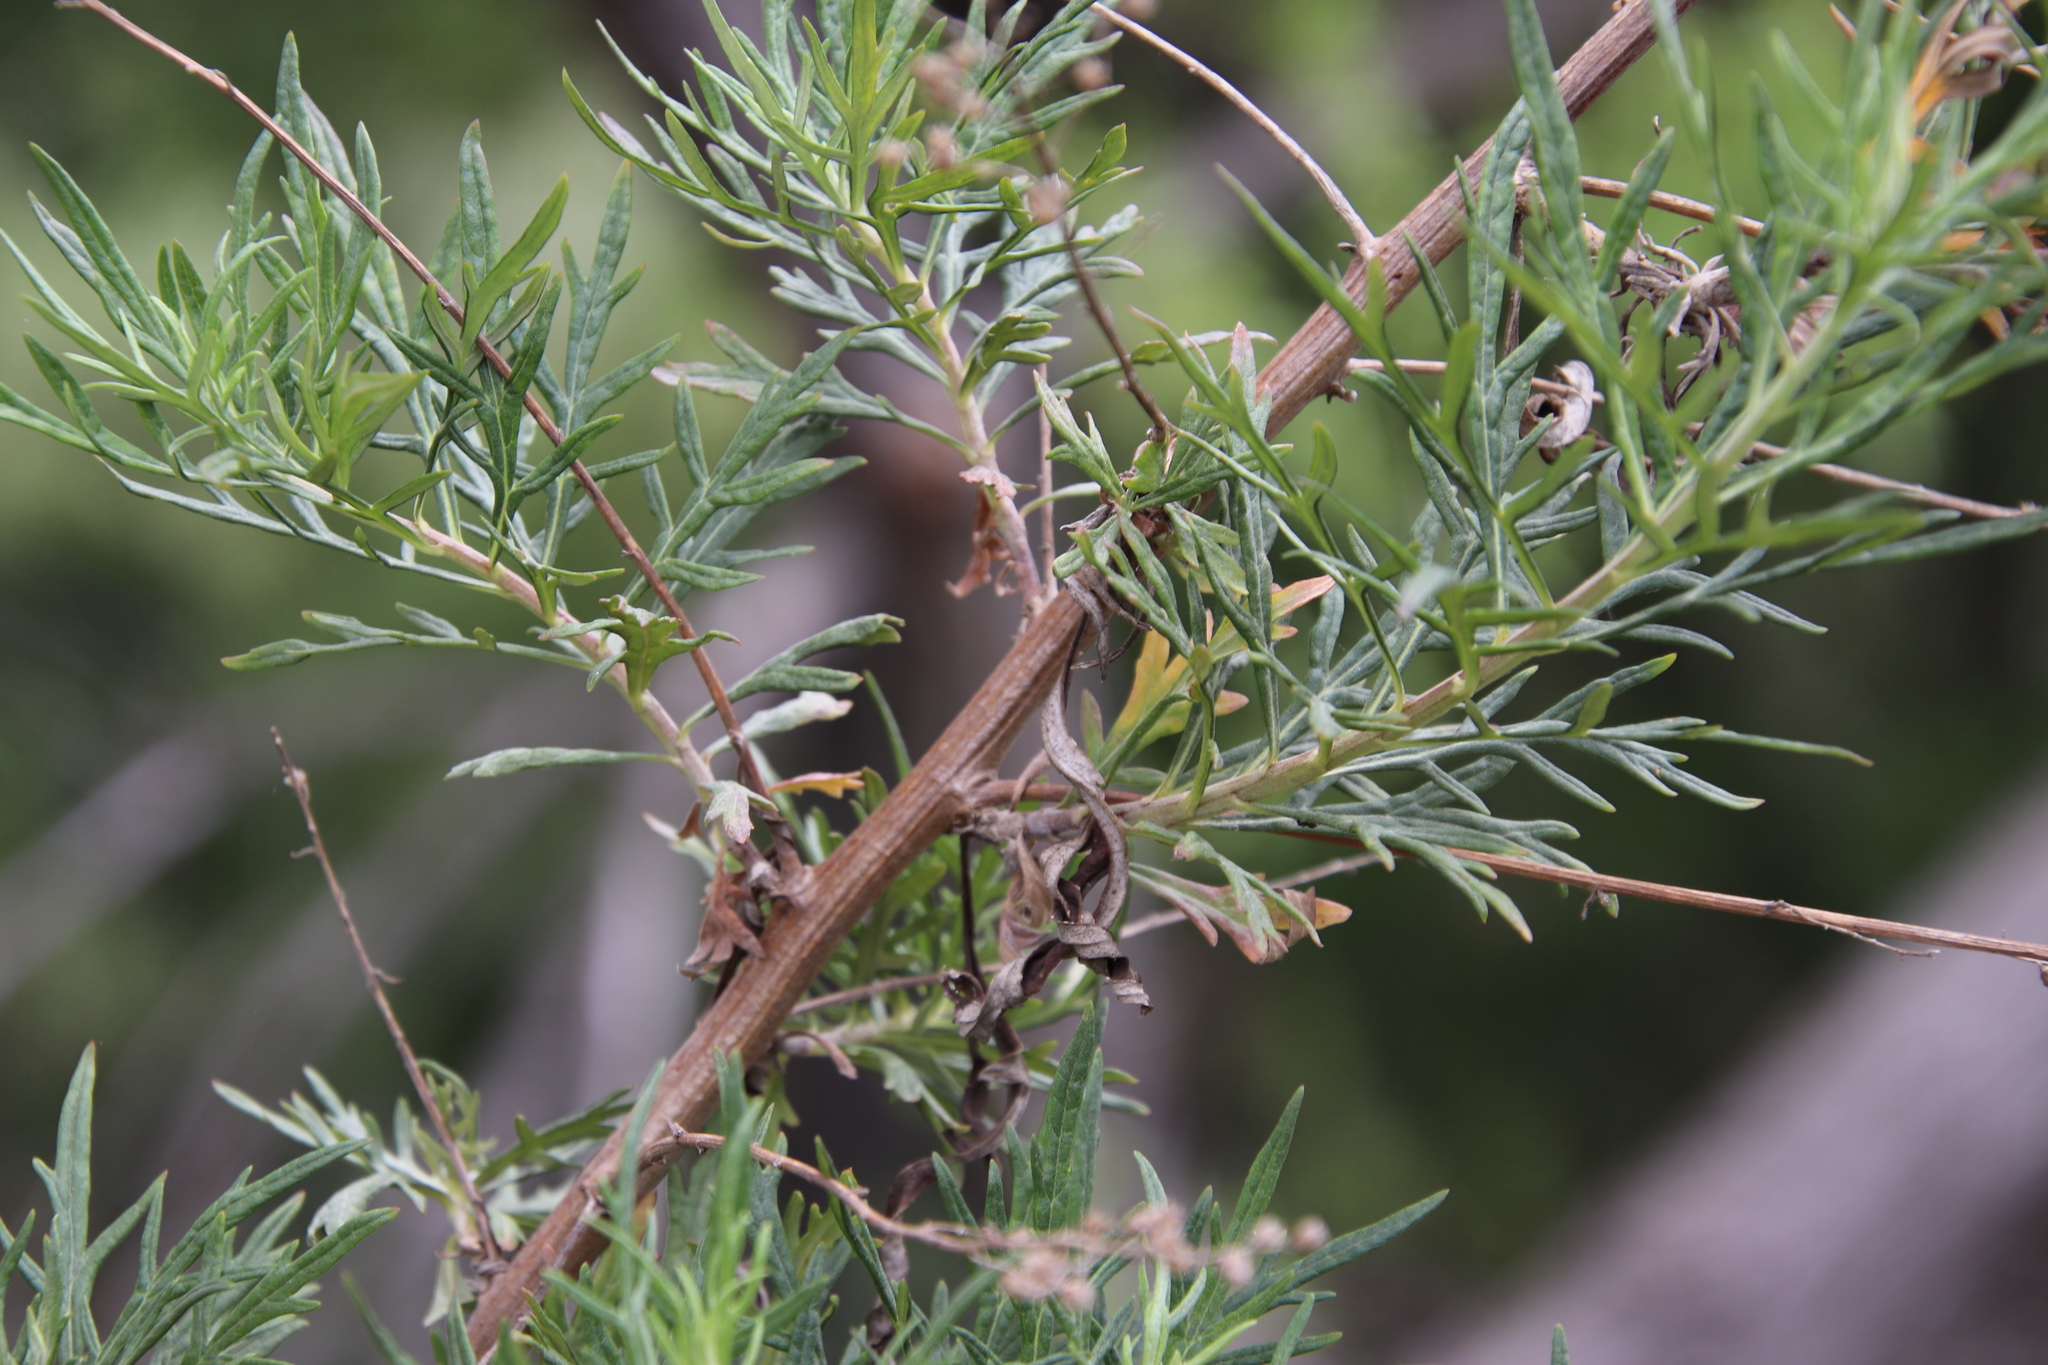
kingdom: Plantae
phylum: Tracheophyta
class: Magnoliopsida
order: Asterales
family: Asteraceae
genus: Artemisia
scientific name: Artemisia palmeri
